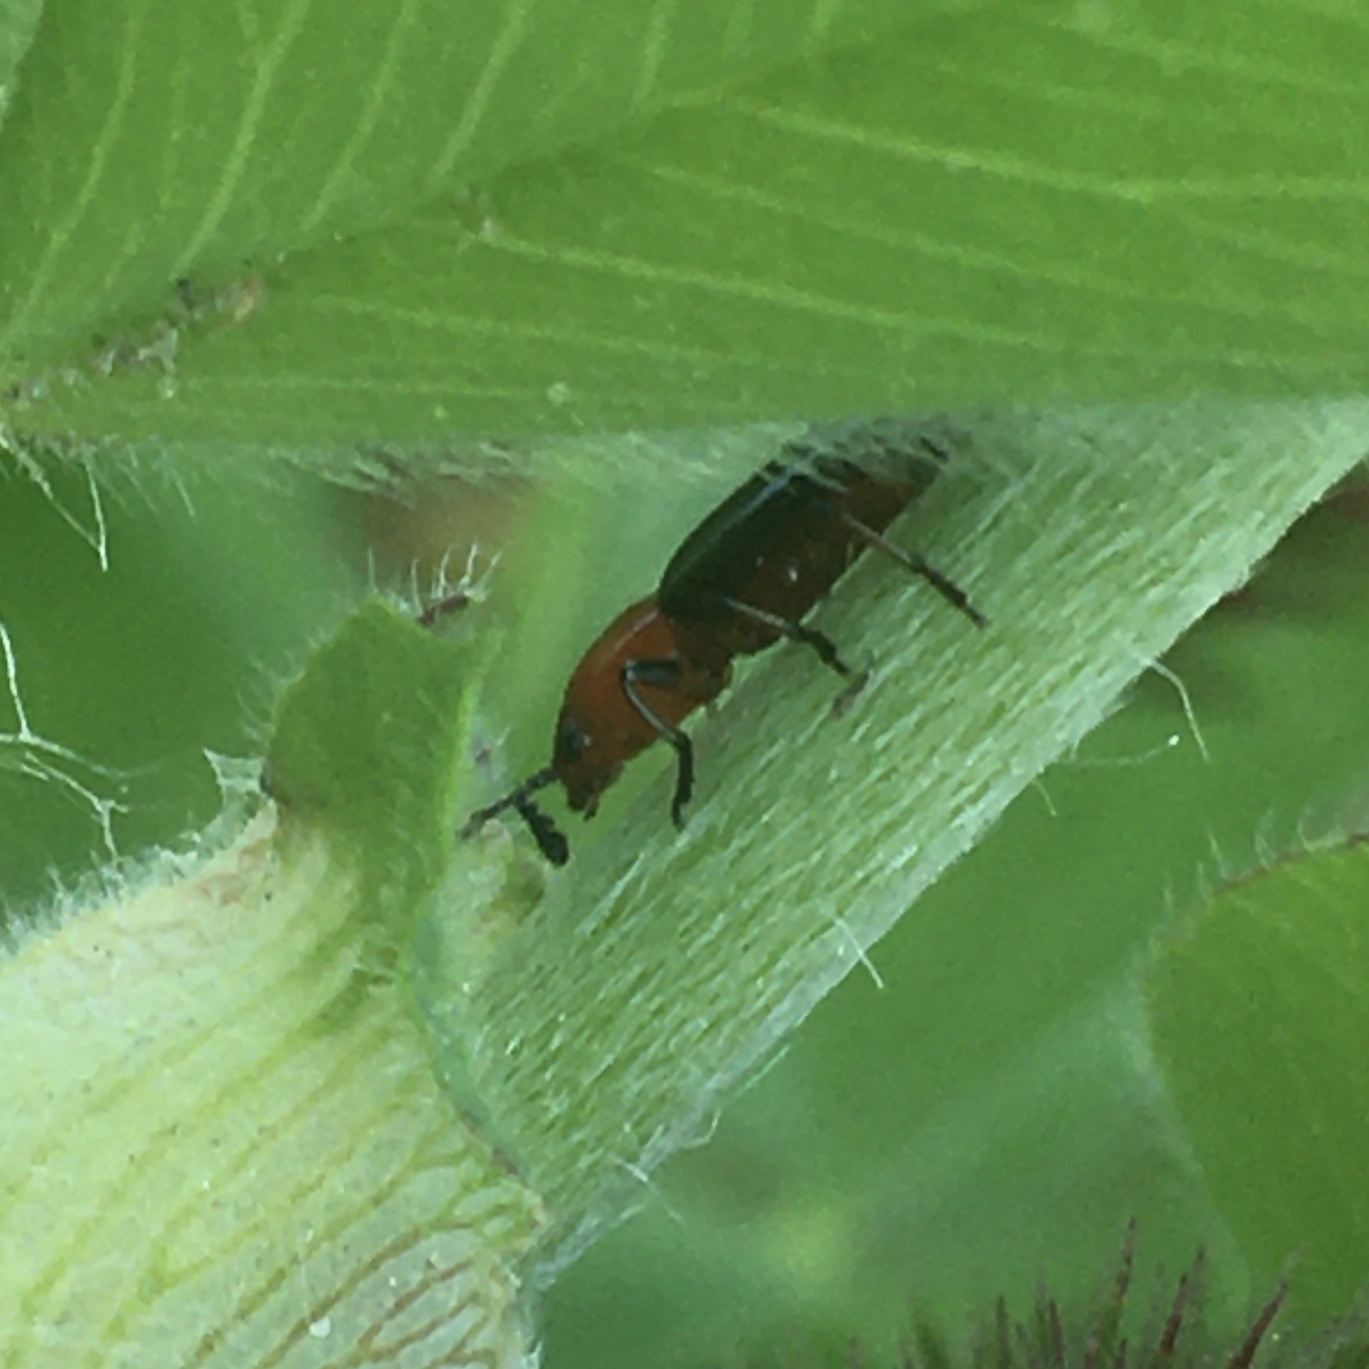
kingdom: Animalia
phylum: Arthropoda
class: Insecta
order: Coleoptera
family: Erotylidae
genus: Languria
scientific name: Languria mozardi
